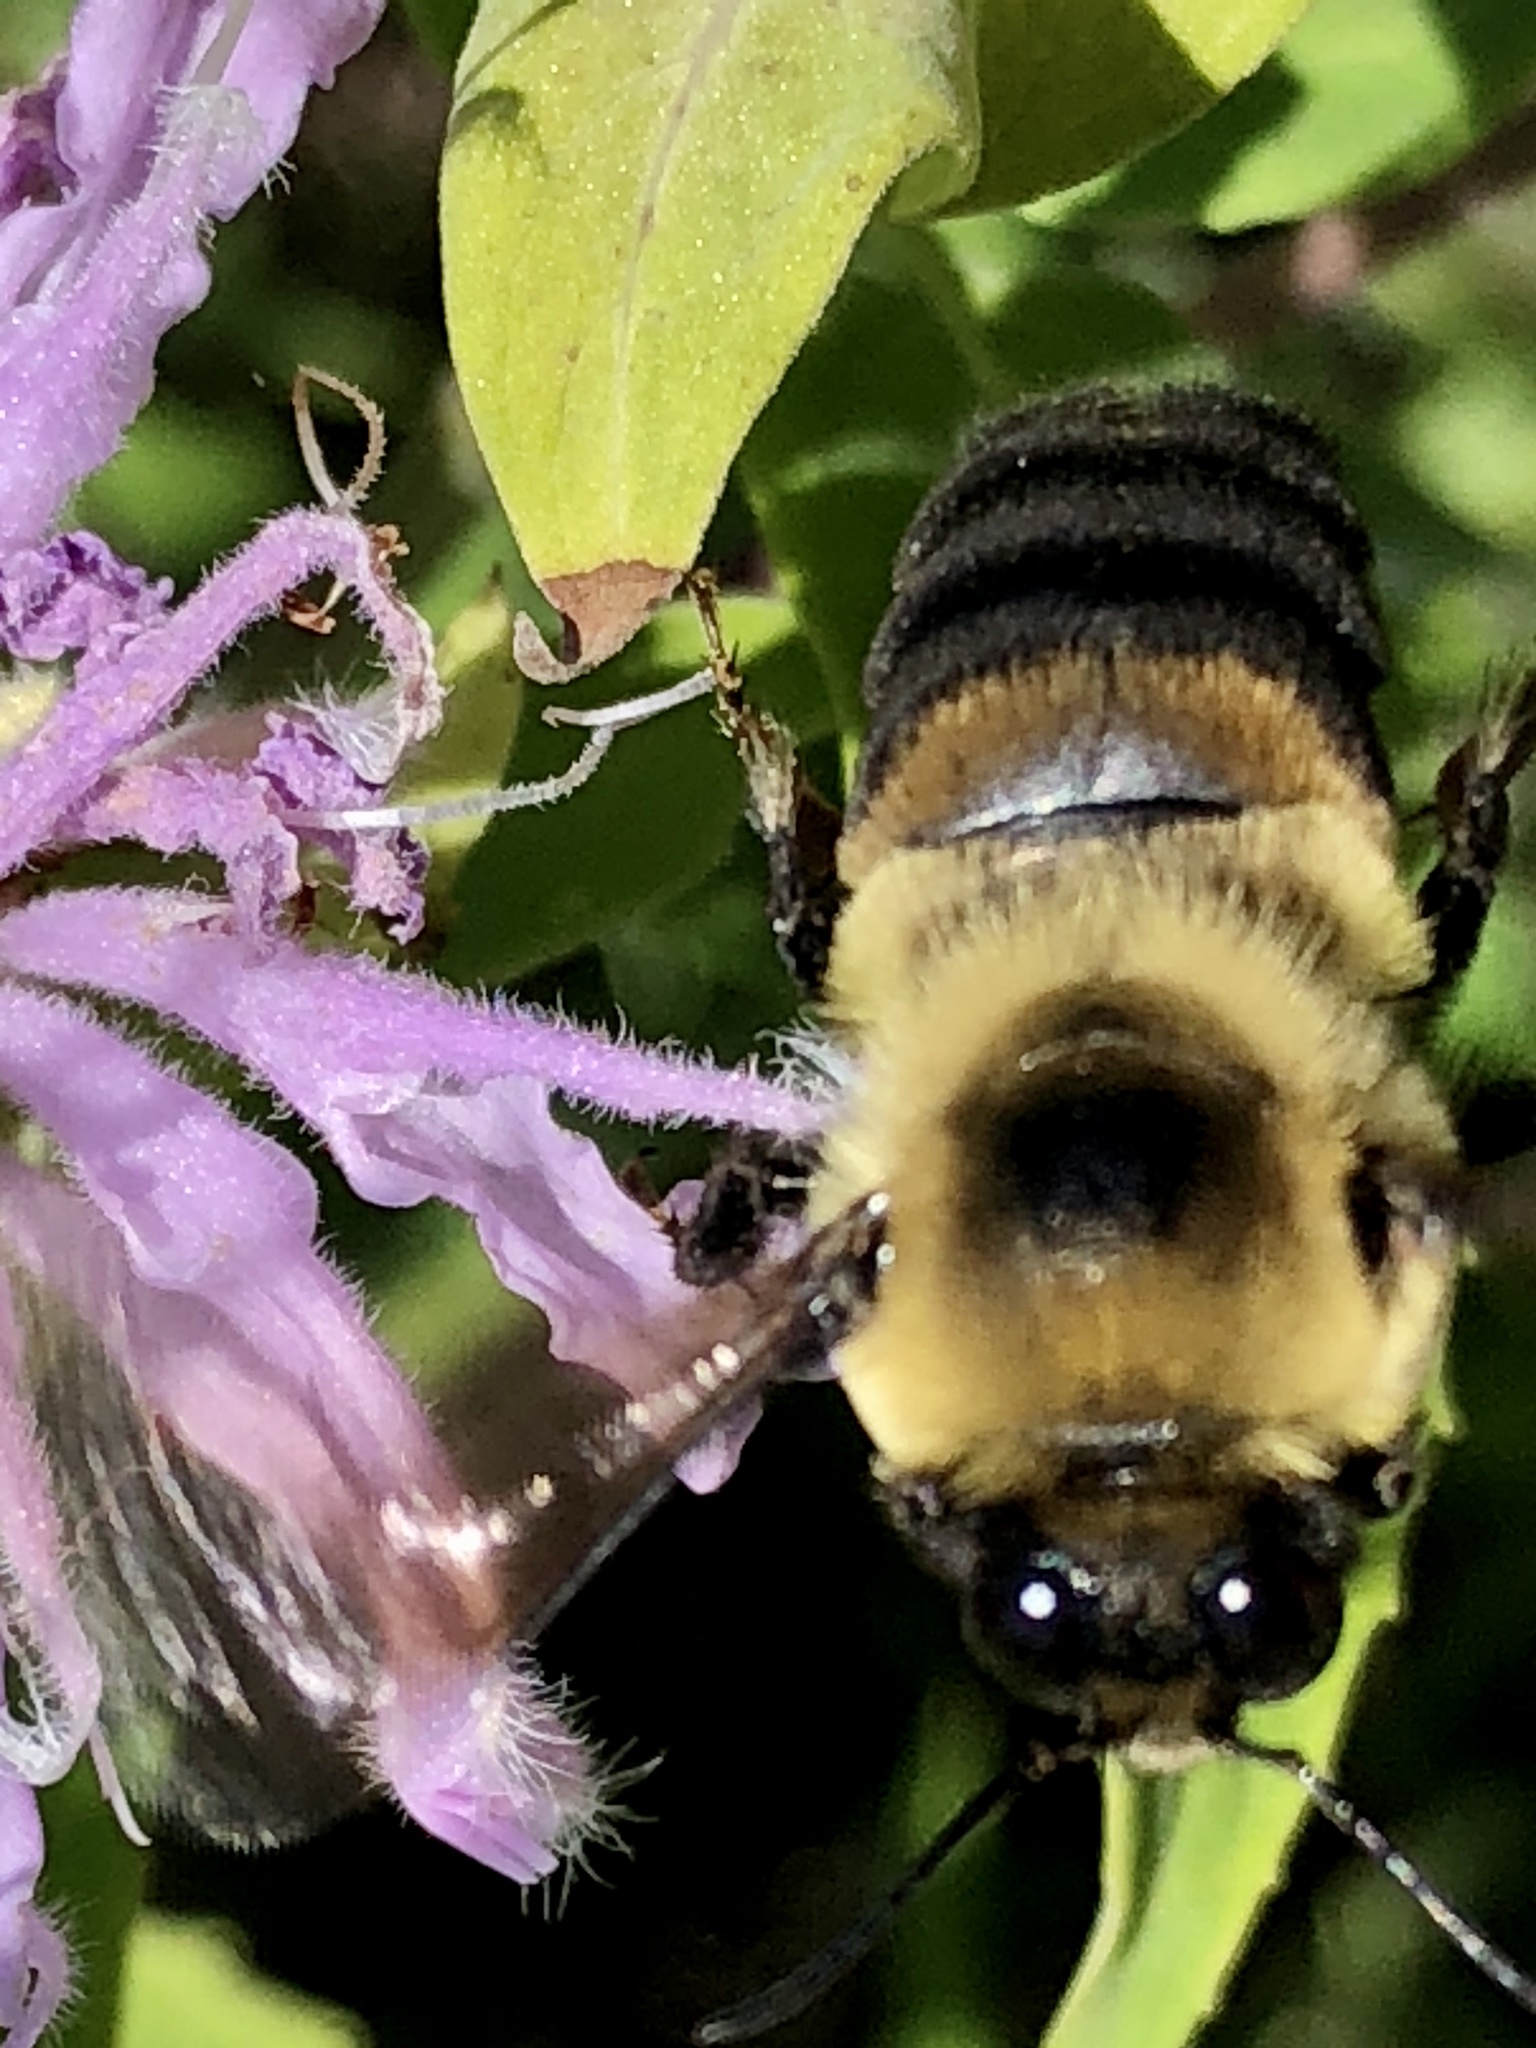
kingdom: Animalia
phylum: Arthropoda
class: Insecta
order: Hymenoptera
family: Apidae
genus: Bombus
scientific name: Bombus griseocollis
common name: Brown-belted bumble bee
